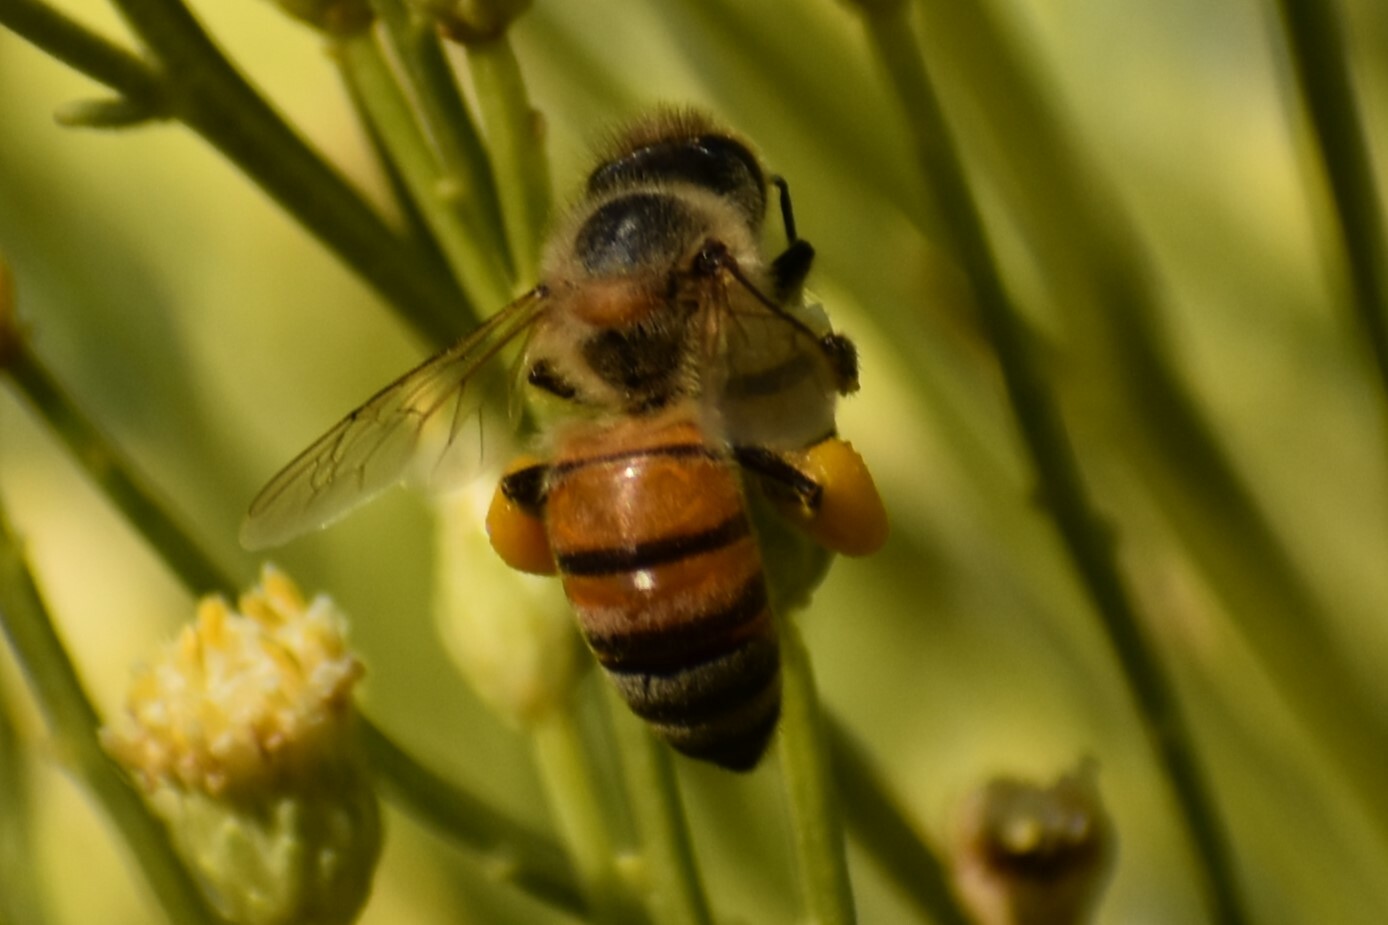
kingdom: Animalia
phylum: Arthropoda
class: Insecta
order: Hymenoptera
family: Apidae
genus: Apis
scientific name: Apis mellifera
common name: Honey bee
